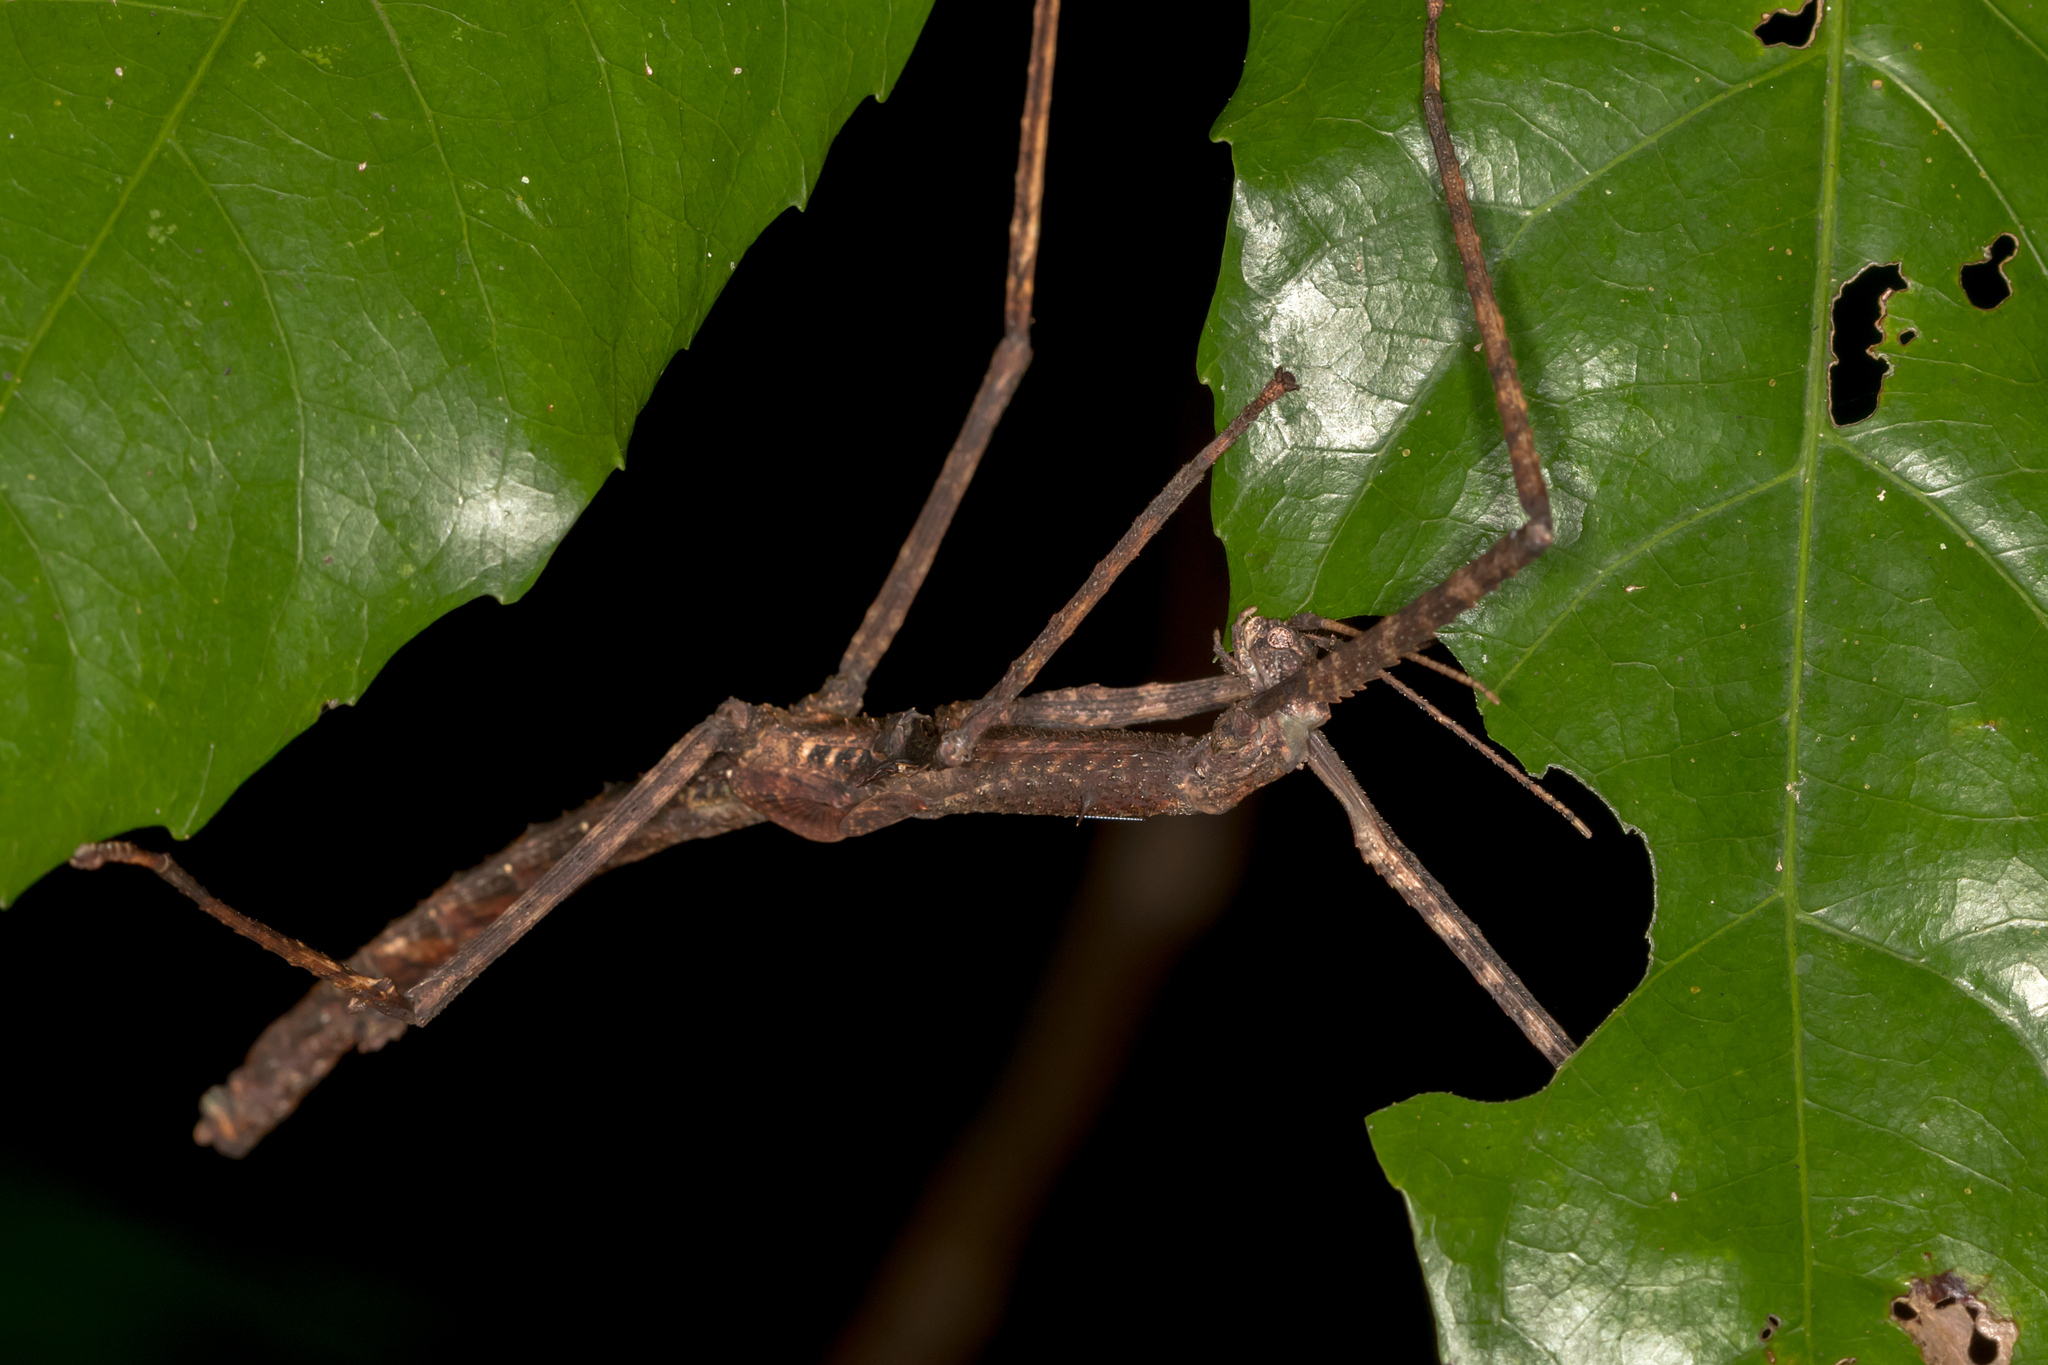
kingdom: Animalia
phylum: Arthropoda
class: Insecta
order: Phasmida
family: Phasmatidae
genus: Onchestus
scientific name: Onchestus gorgus
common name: Gorgon stick-insect
